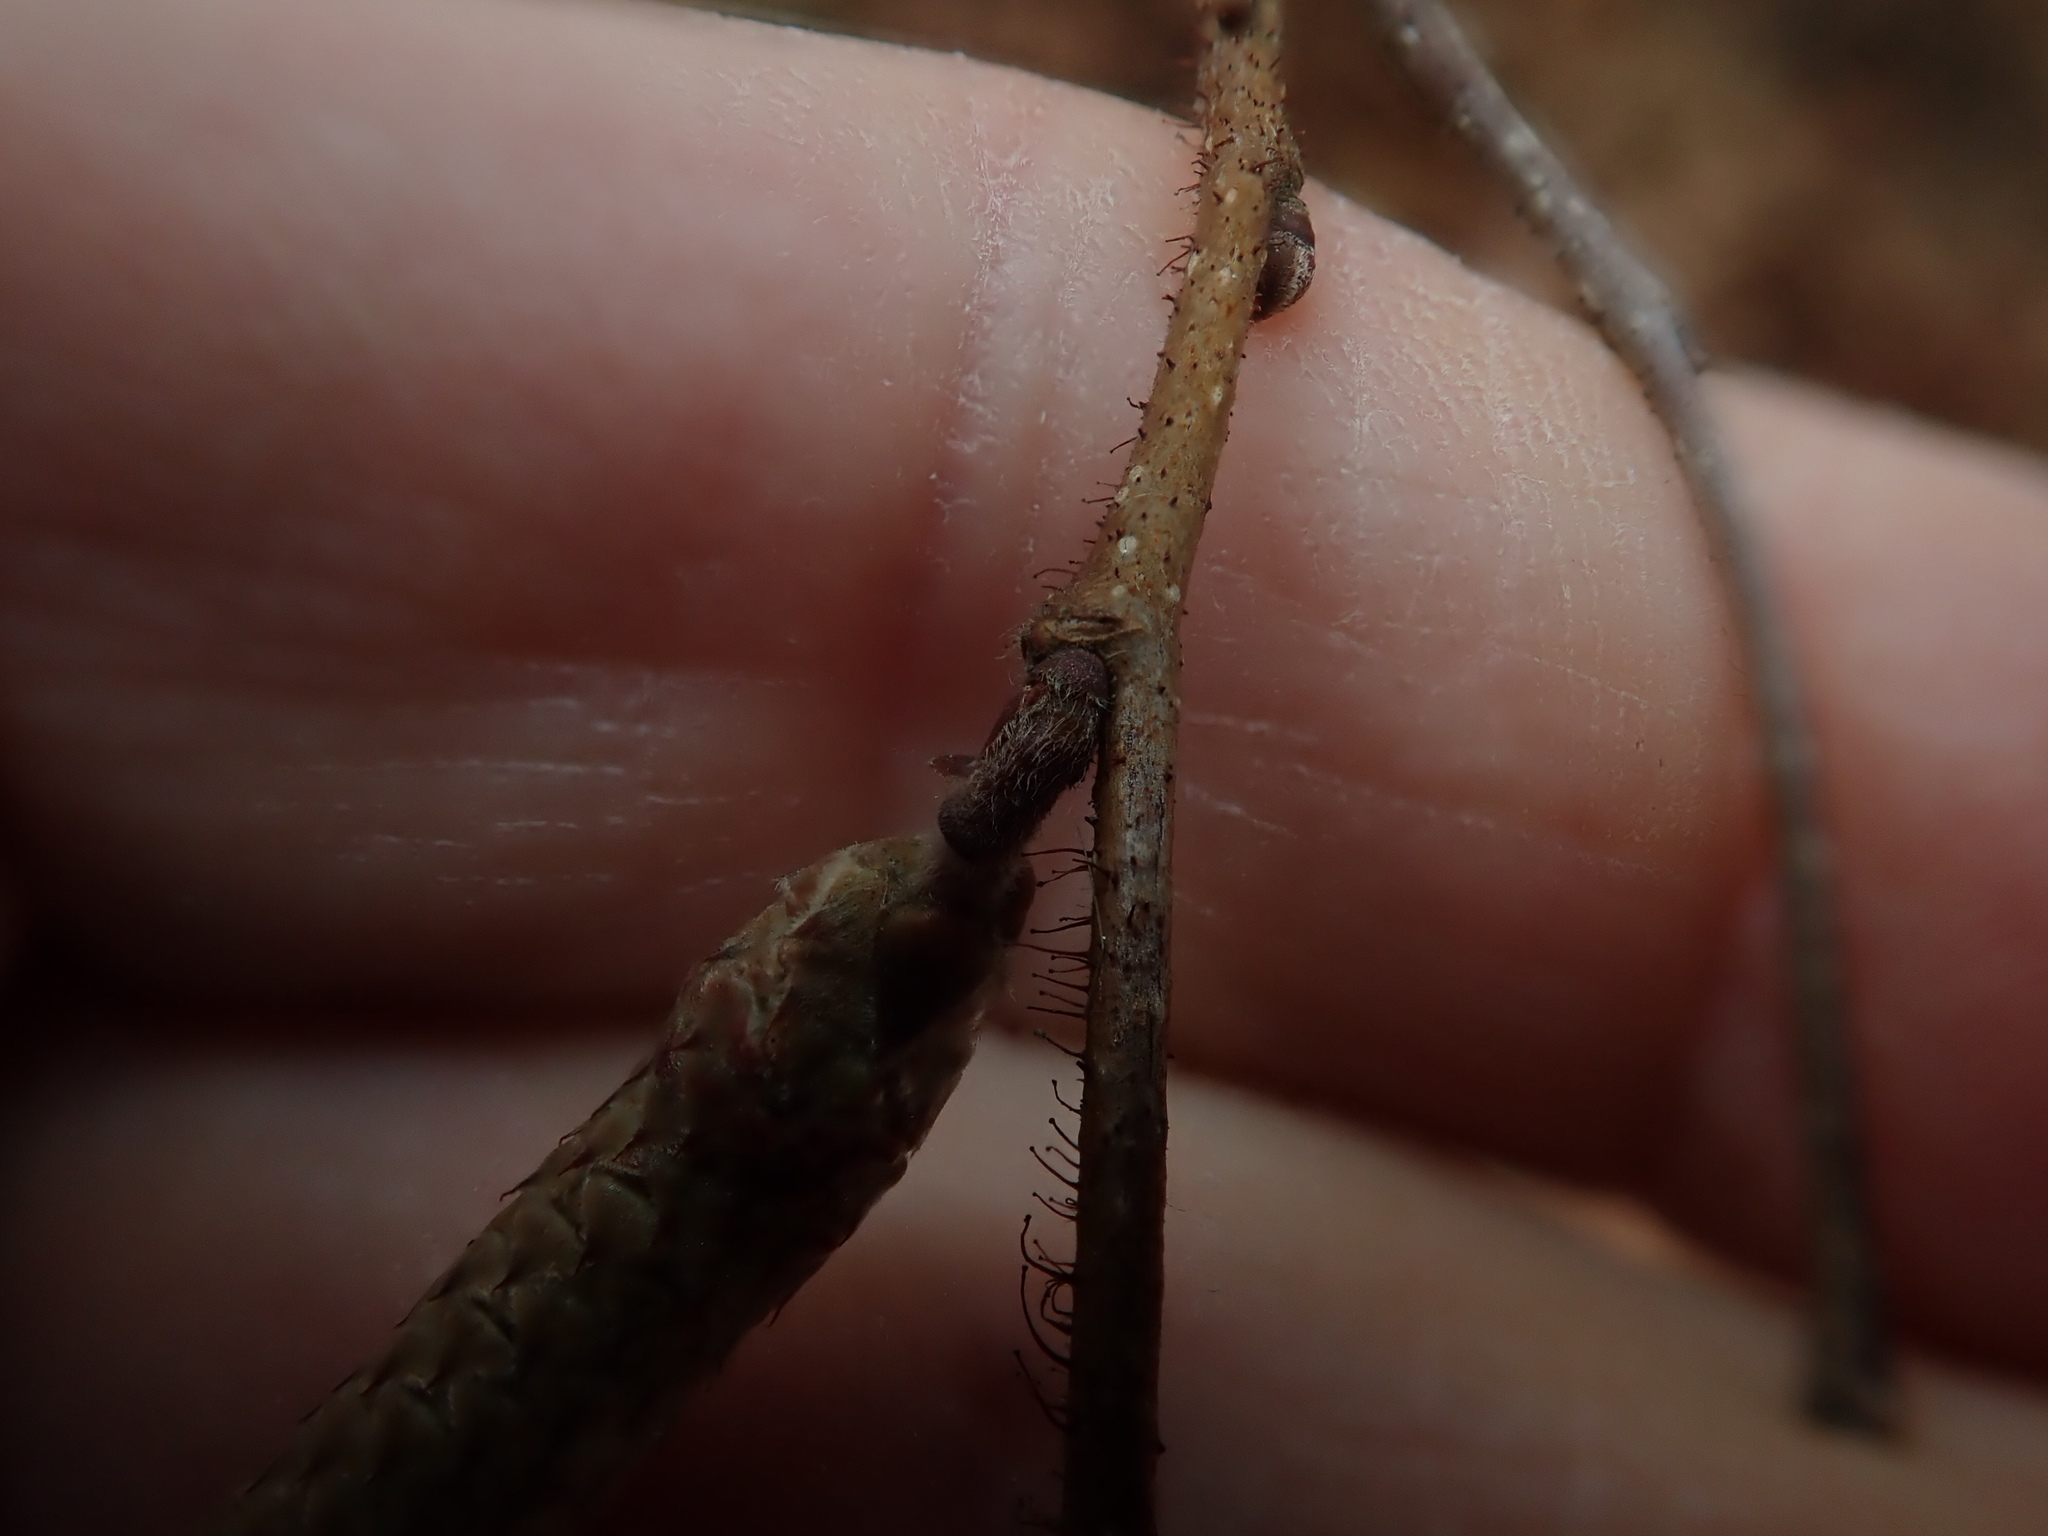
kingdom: Plantae
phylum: Tracheophyta
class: Magnoliopsida
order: Fagales
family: Betulaceae
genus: Corylus
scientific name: Corylus americana
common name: American hazel
